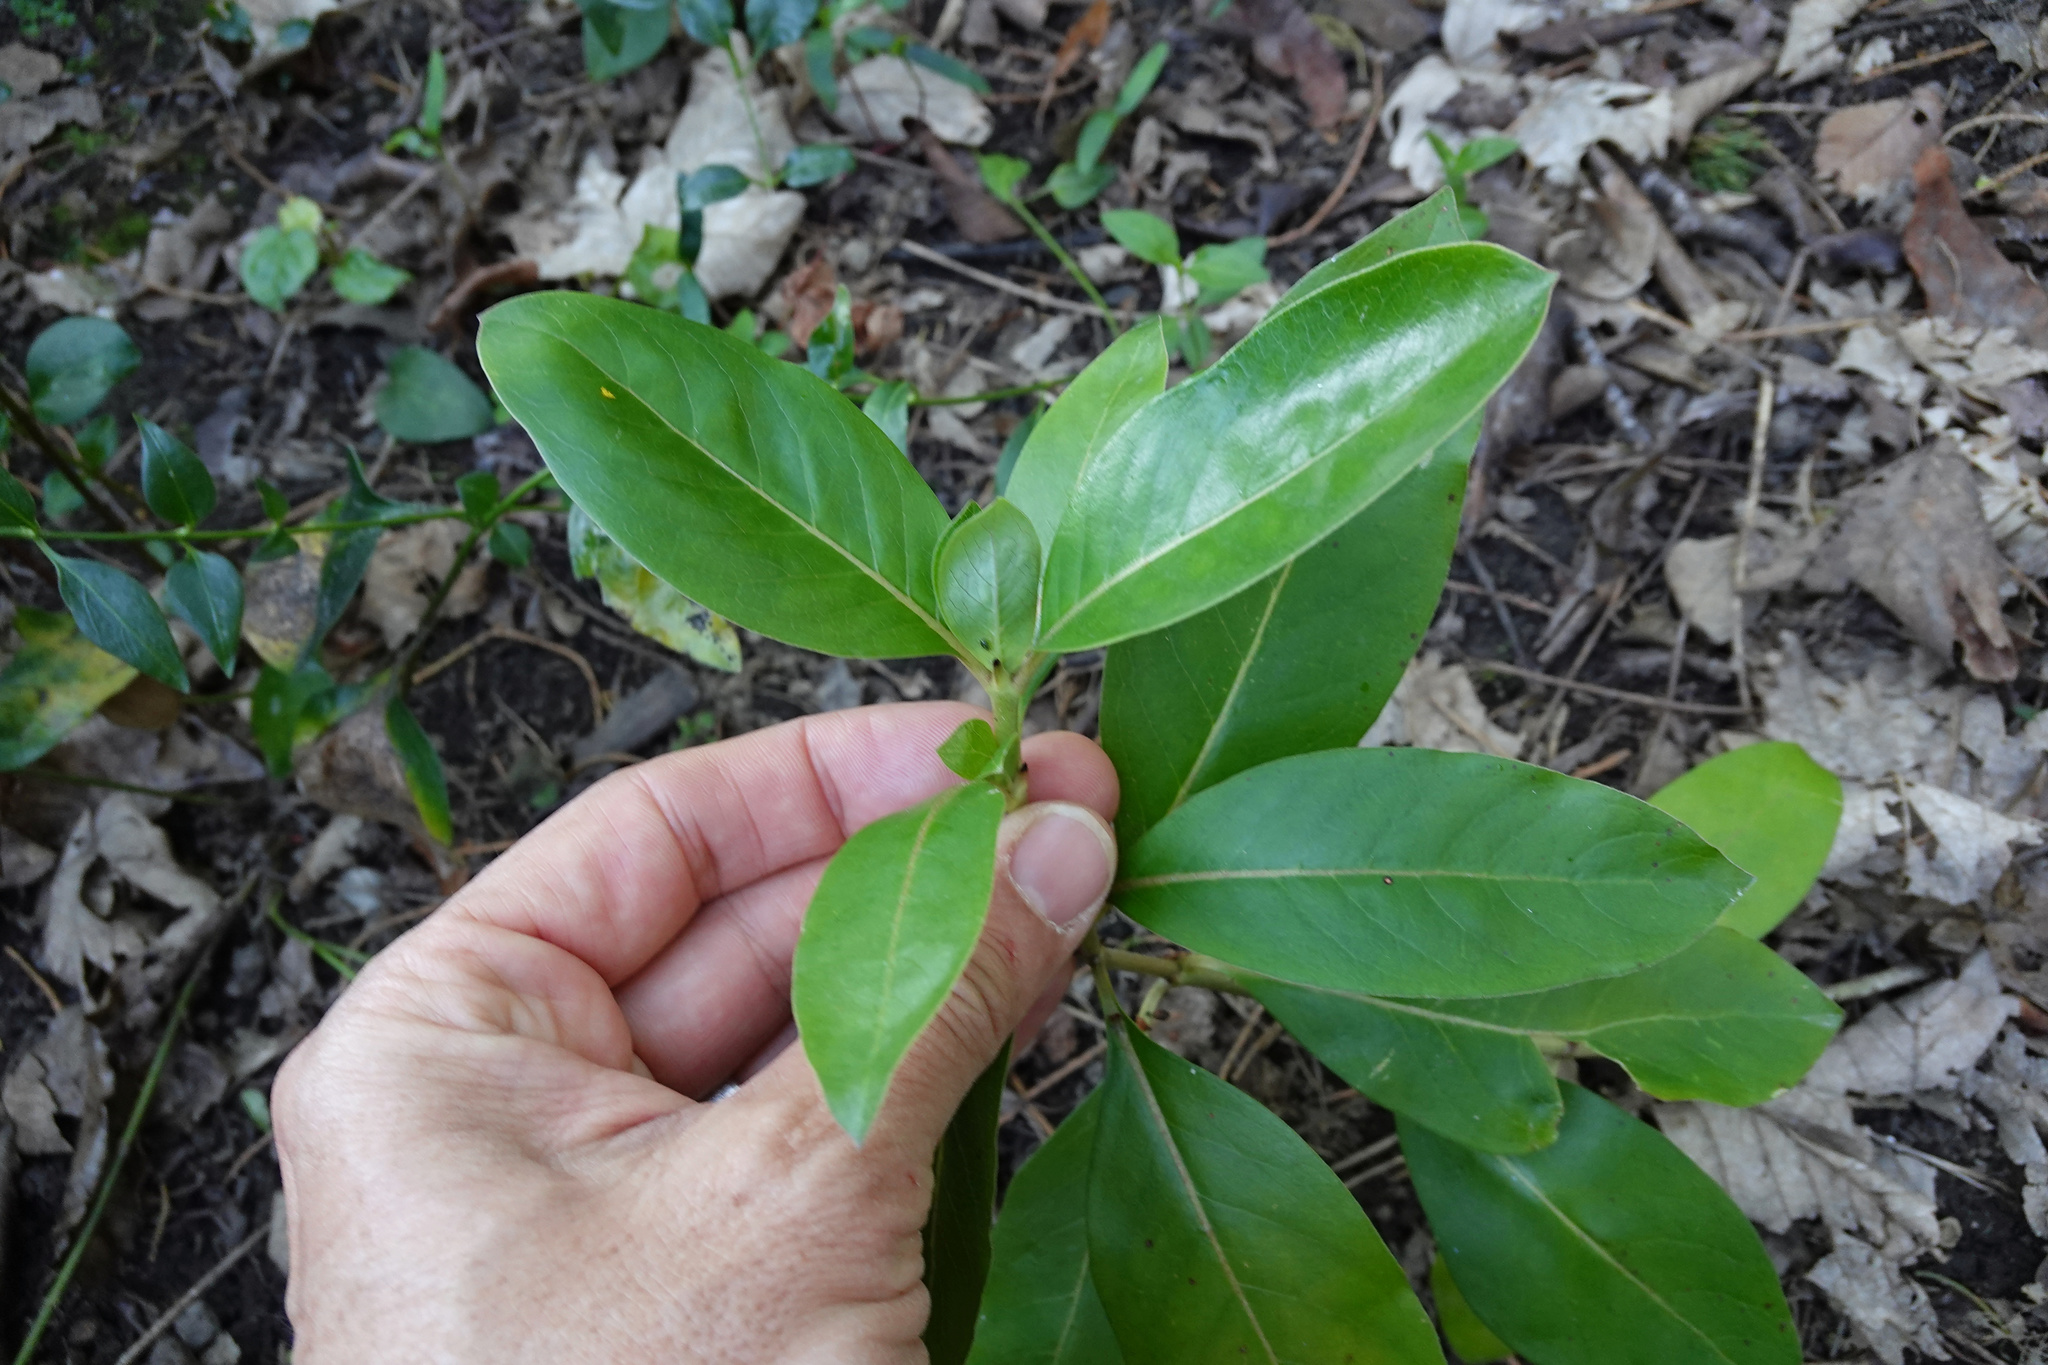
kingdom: Plantae
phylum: Tracheophyta
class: Magnoliopsida
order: Gentianales
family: Rubiaceae
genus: Coprosma
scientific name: Coprosma robusta
